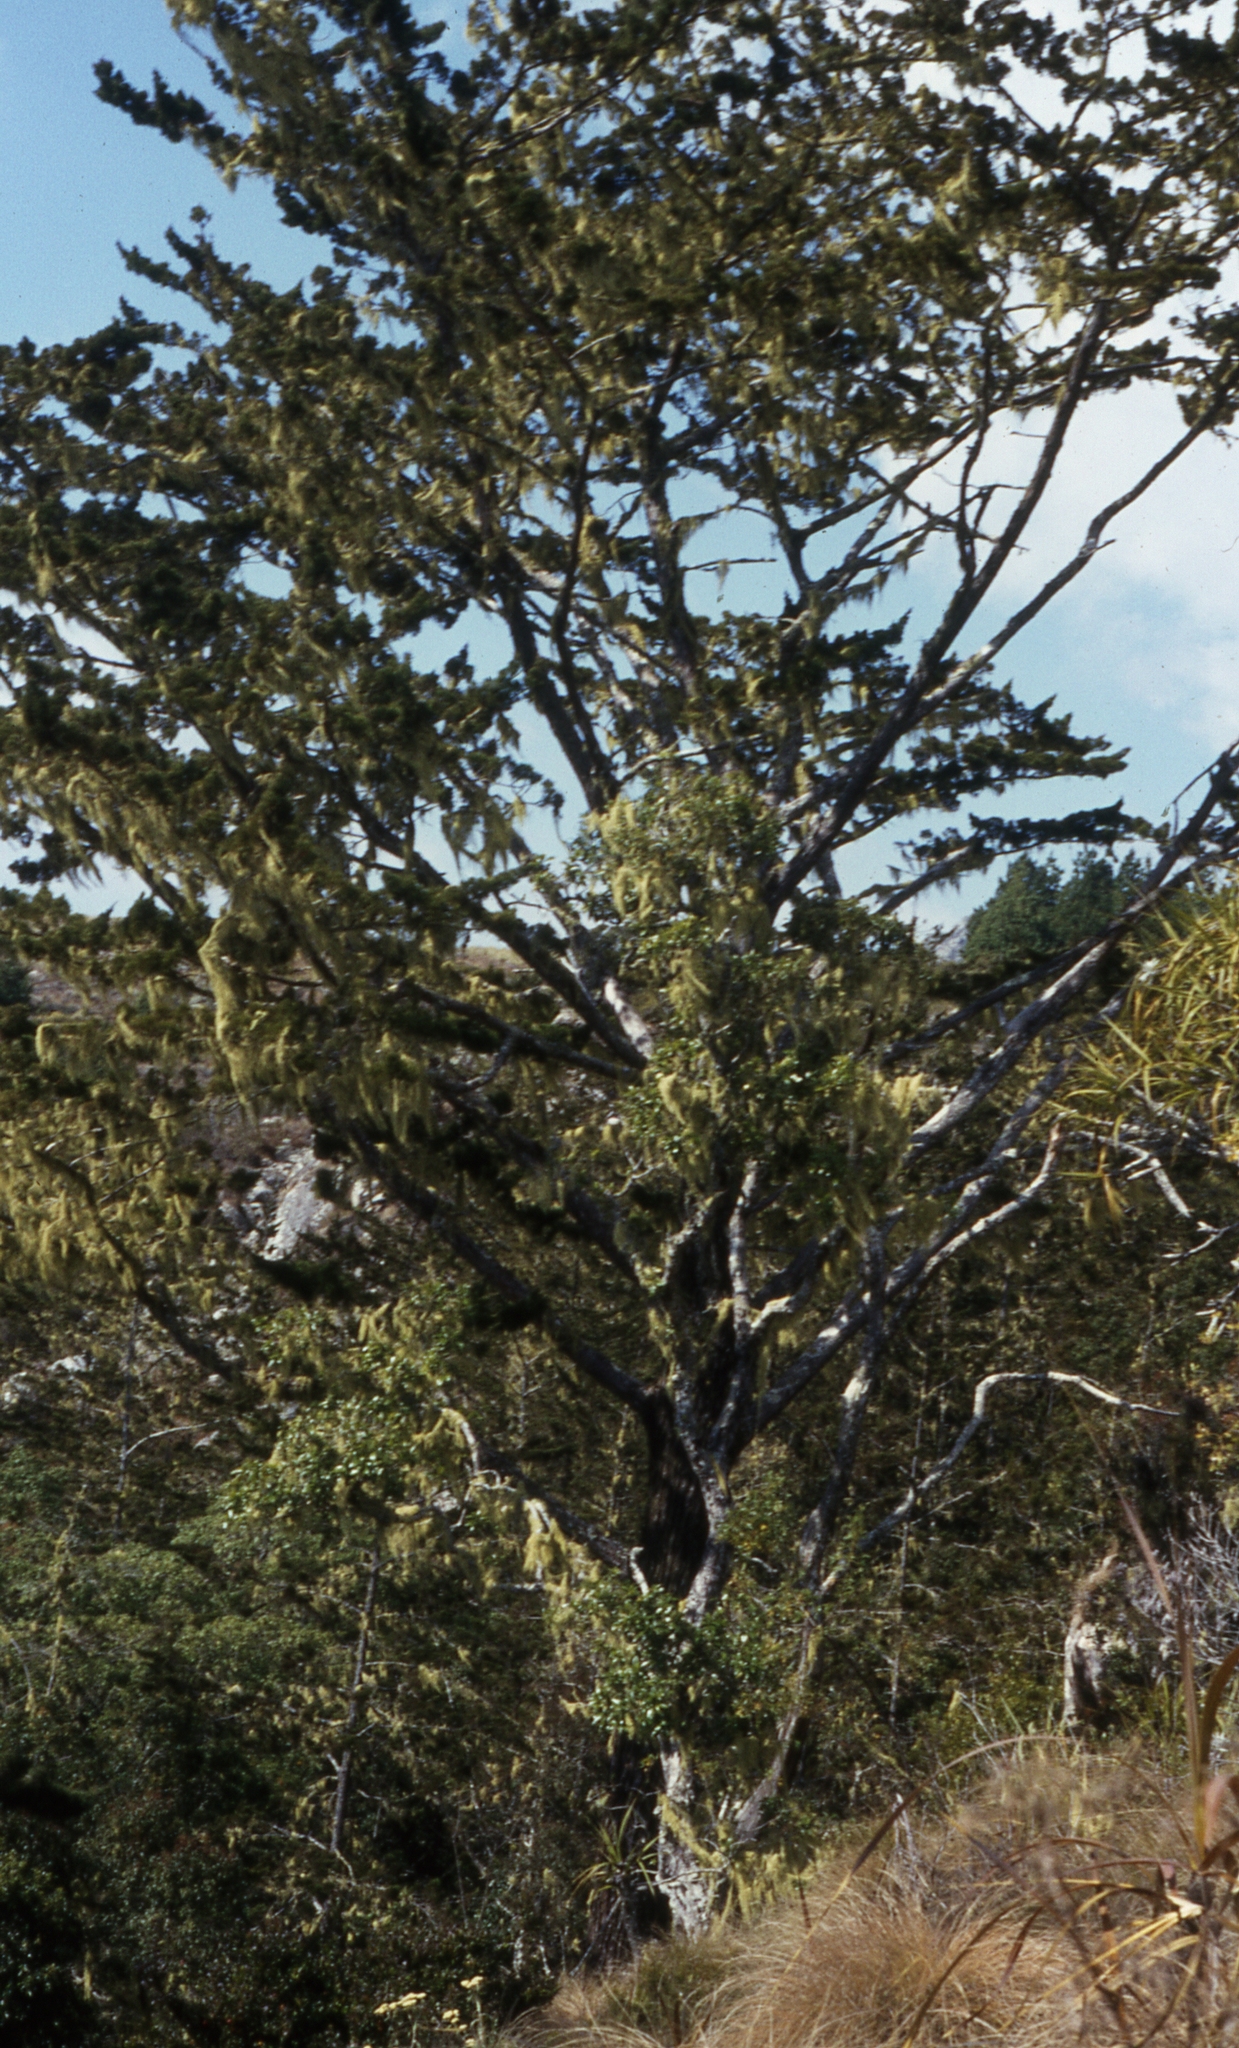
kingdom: Plantae
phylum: Tracheophyta
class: Pinopsida
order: Pinales
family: Cupressaceae
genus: Widdringtonia
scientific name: Widdringtonia whytei
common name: Mulanje cedar
